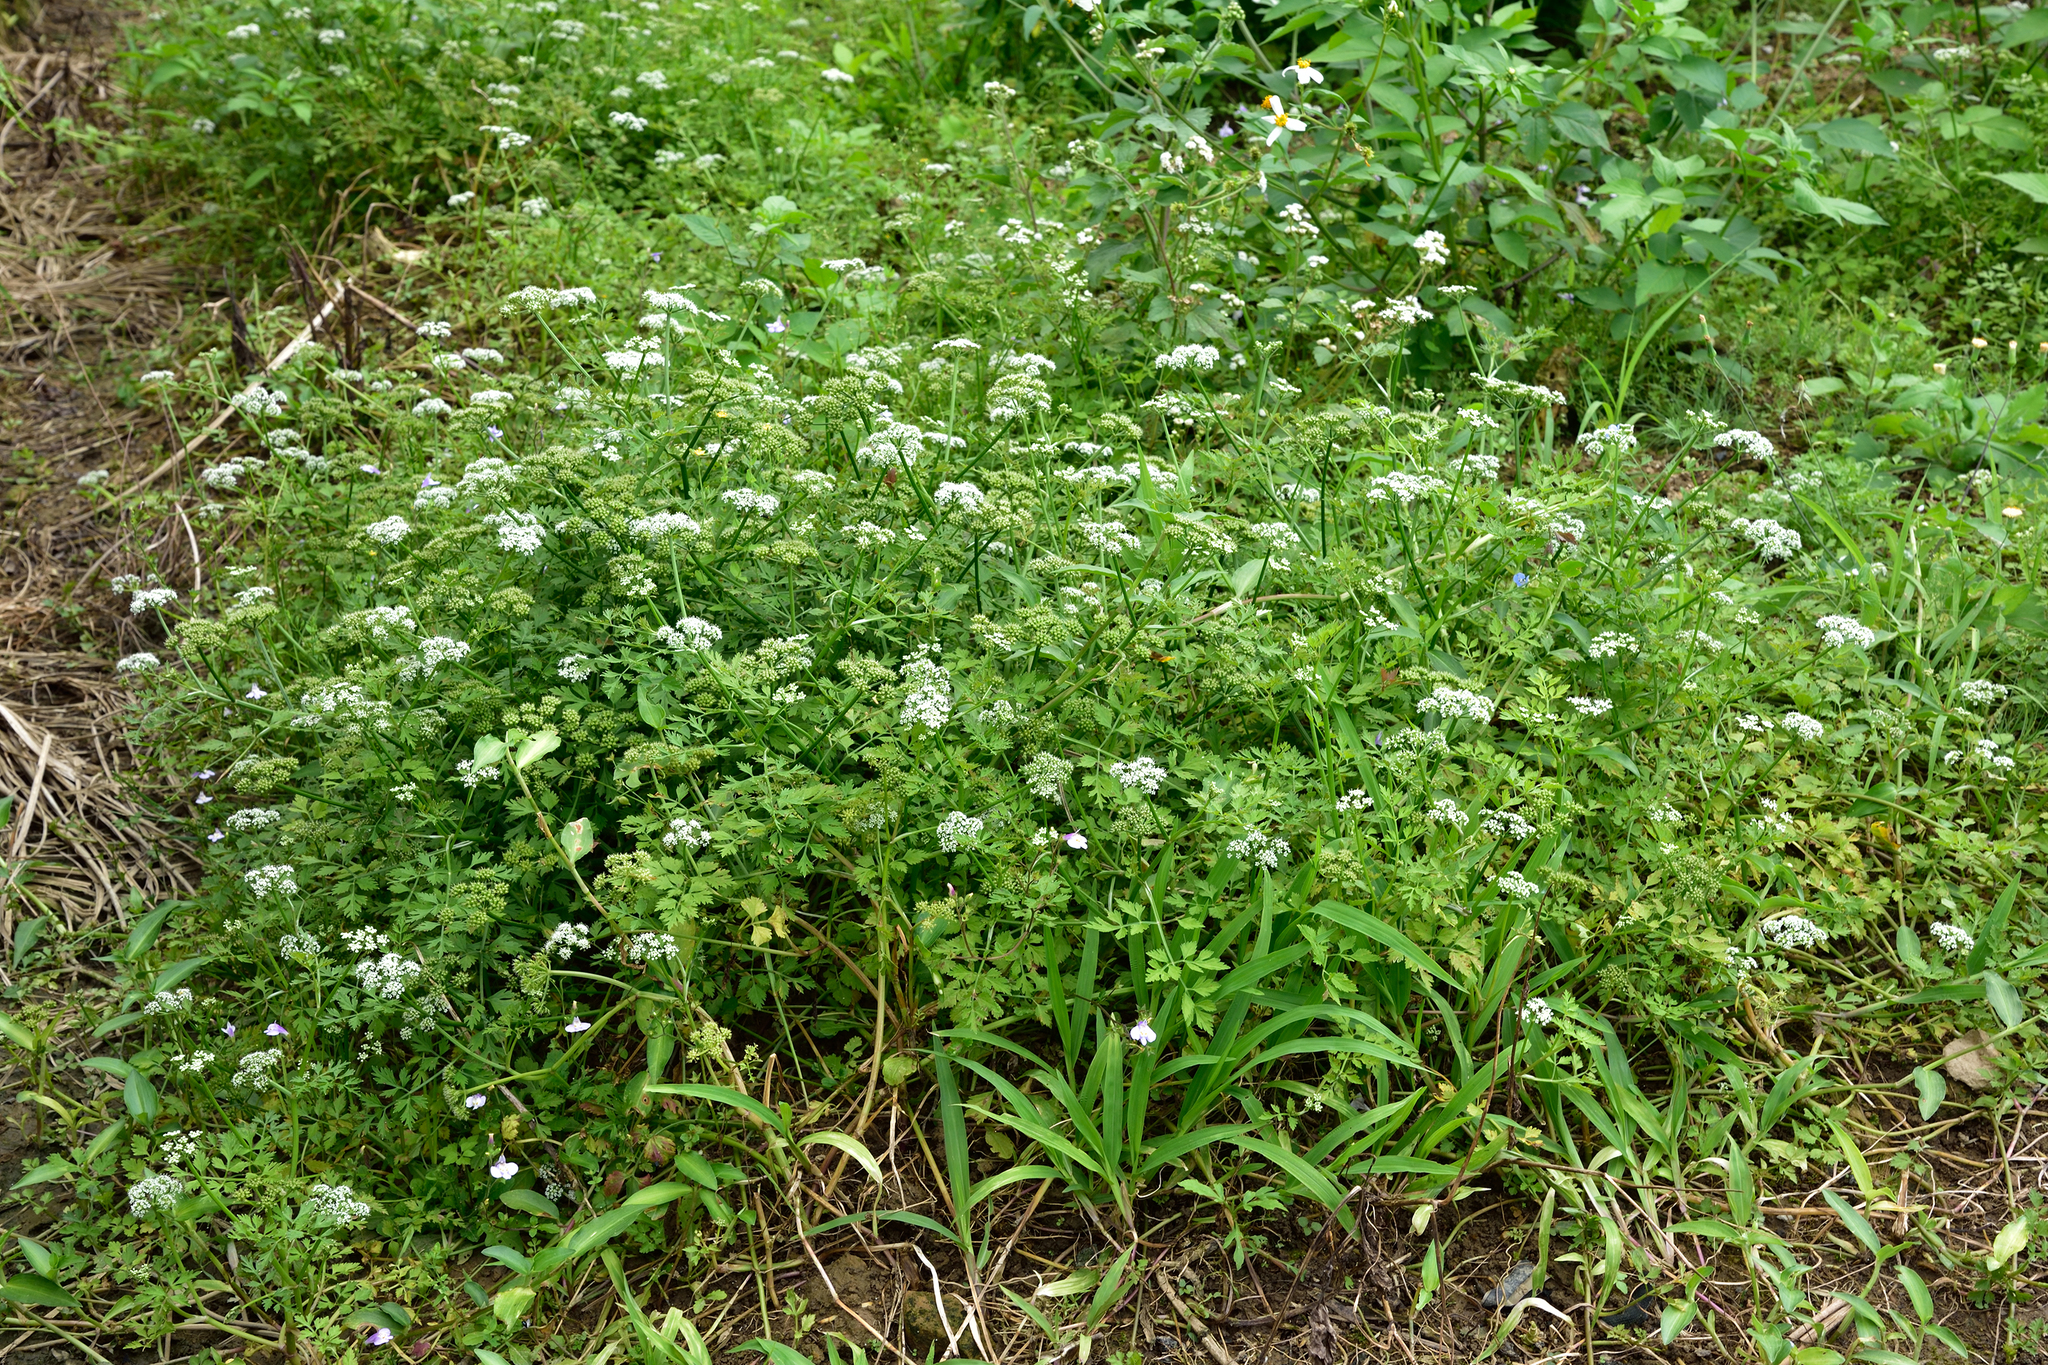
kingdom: Plantae
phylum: Tracheophyta
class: Magnoliopsida
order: Apiales
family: Apiaceae
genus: Oenanthe
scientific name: Oenanthe javanica
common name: Java water-dropwort
